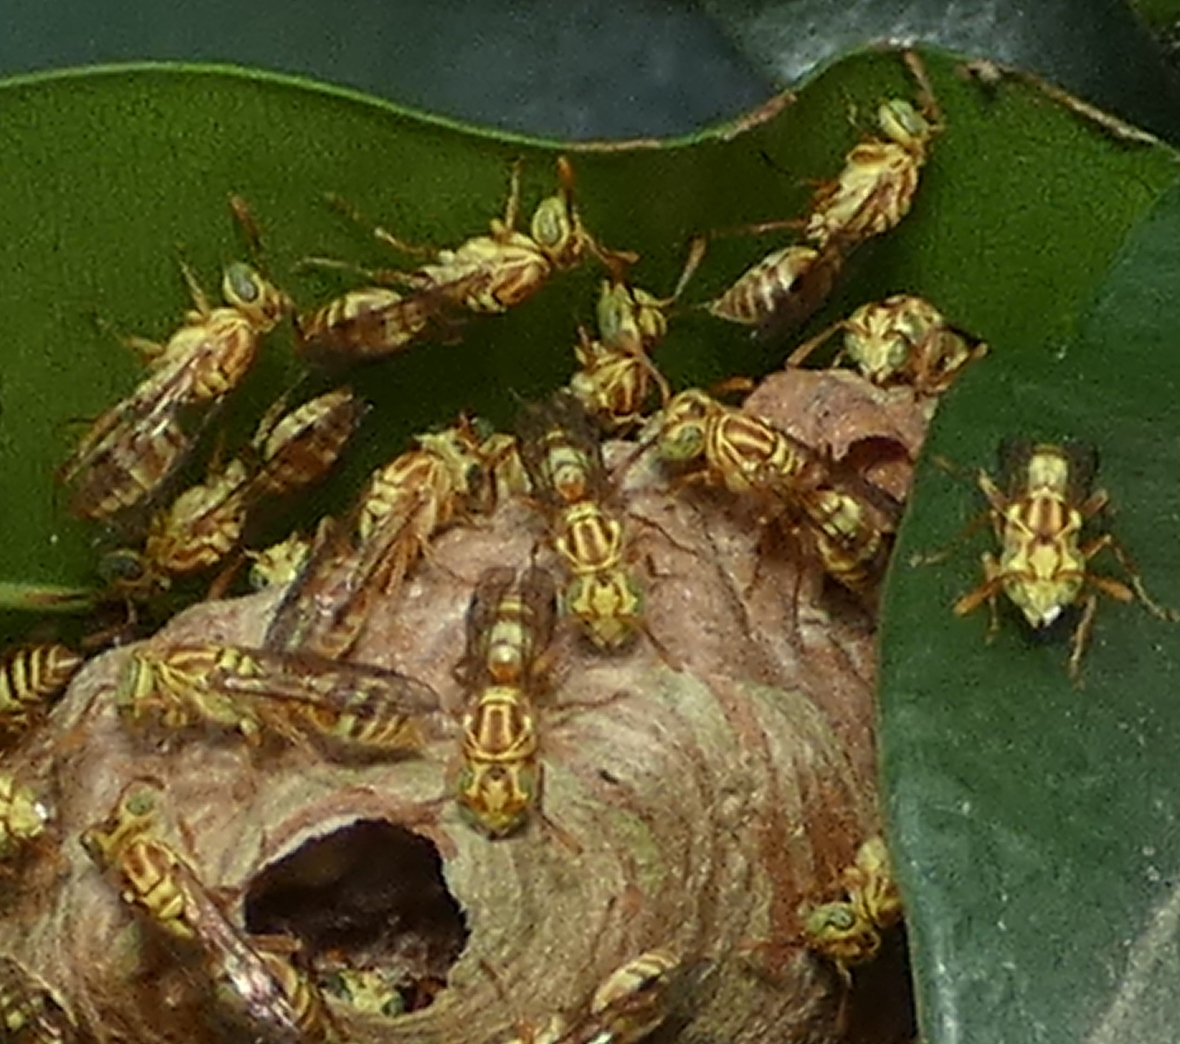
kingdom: Animalia
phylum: Arthropoda
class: Insecta
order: Hymenoptera
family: Vespidae
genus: Protopolybia
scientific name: Protopolybia potiguara
